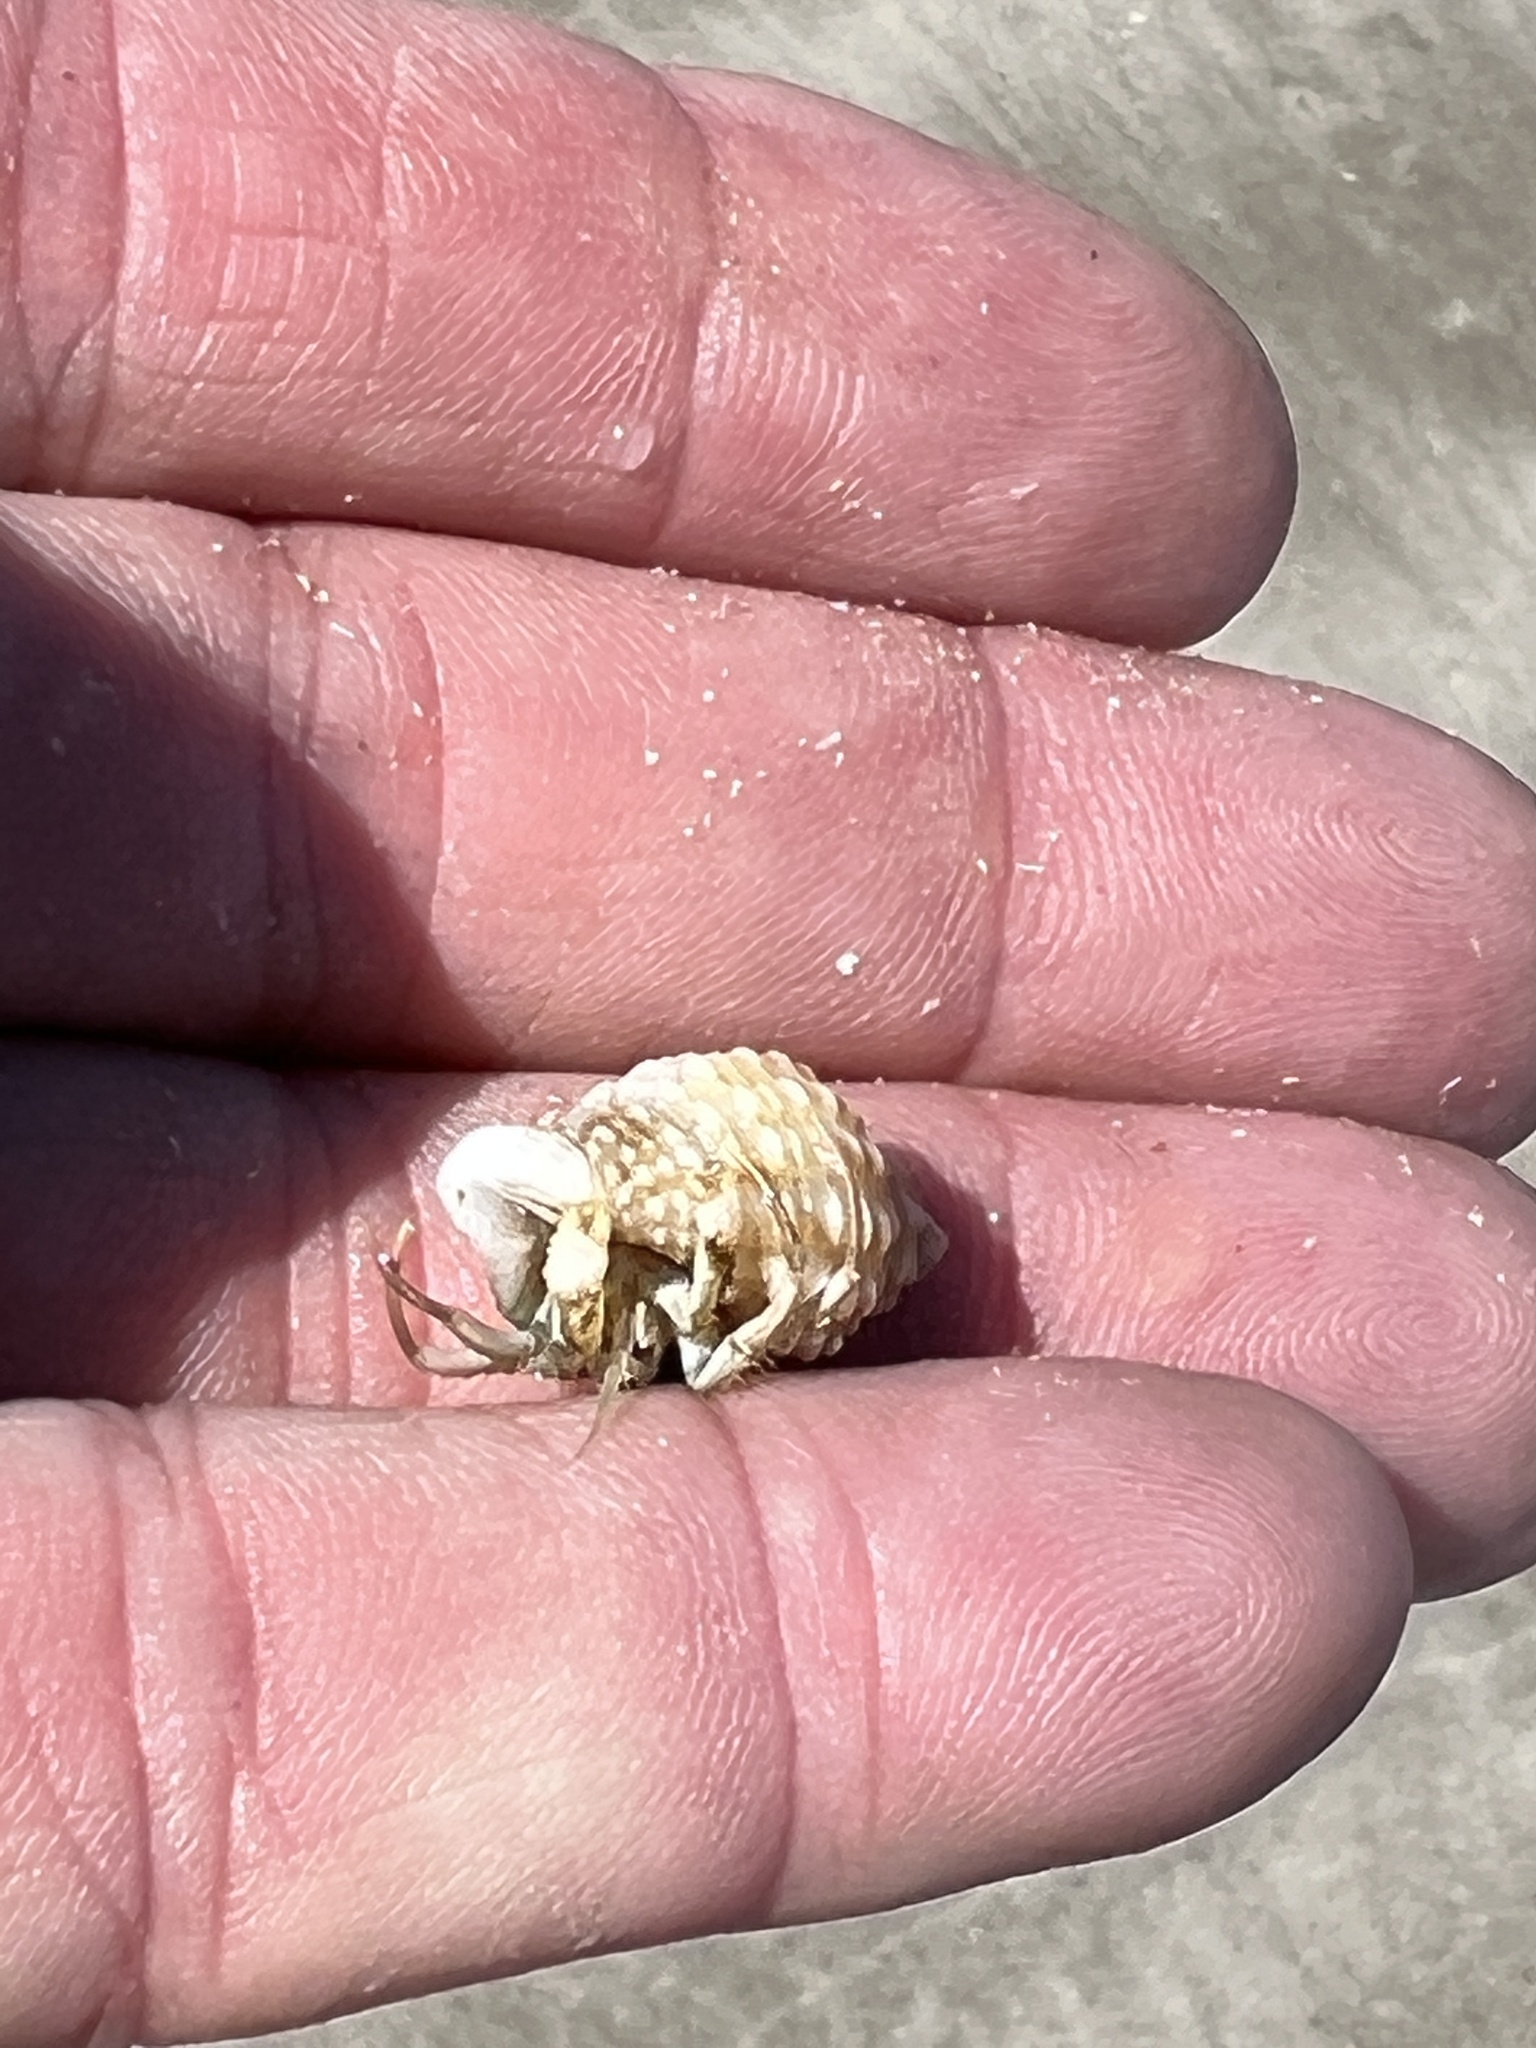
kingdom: Animalia
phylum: Arthropoda
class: Malacostraca
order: Decapoda
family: Diogenidae
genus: Isocheles
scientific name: Isocheles wurdemanni
